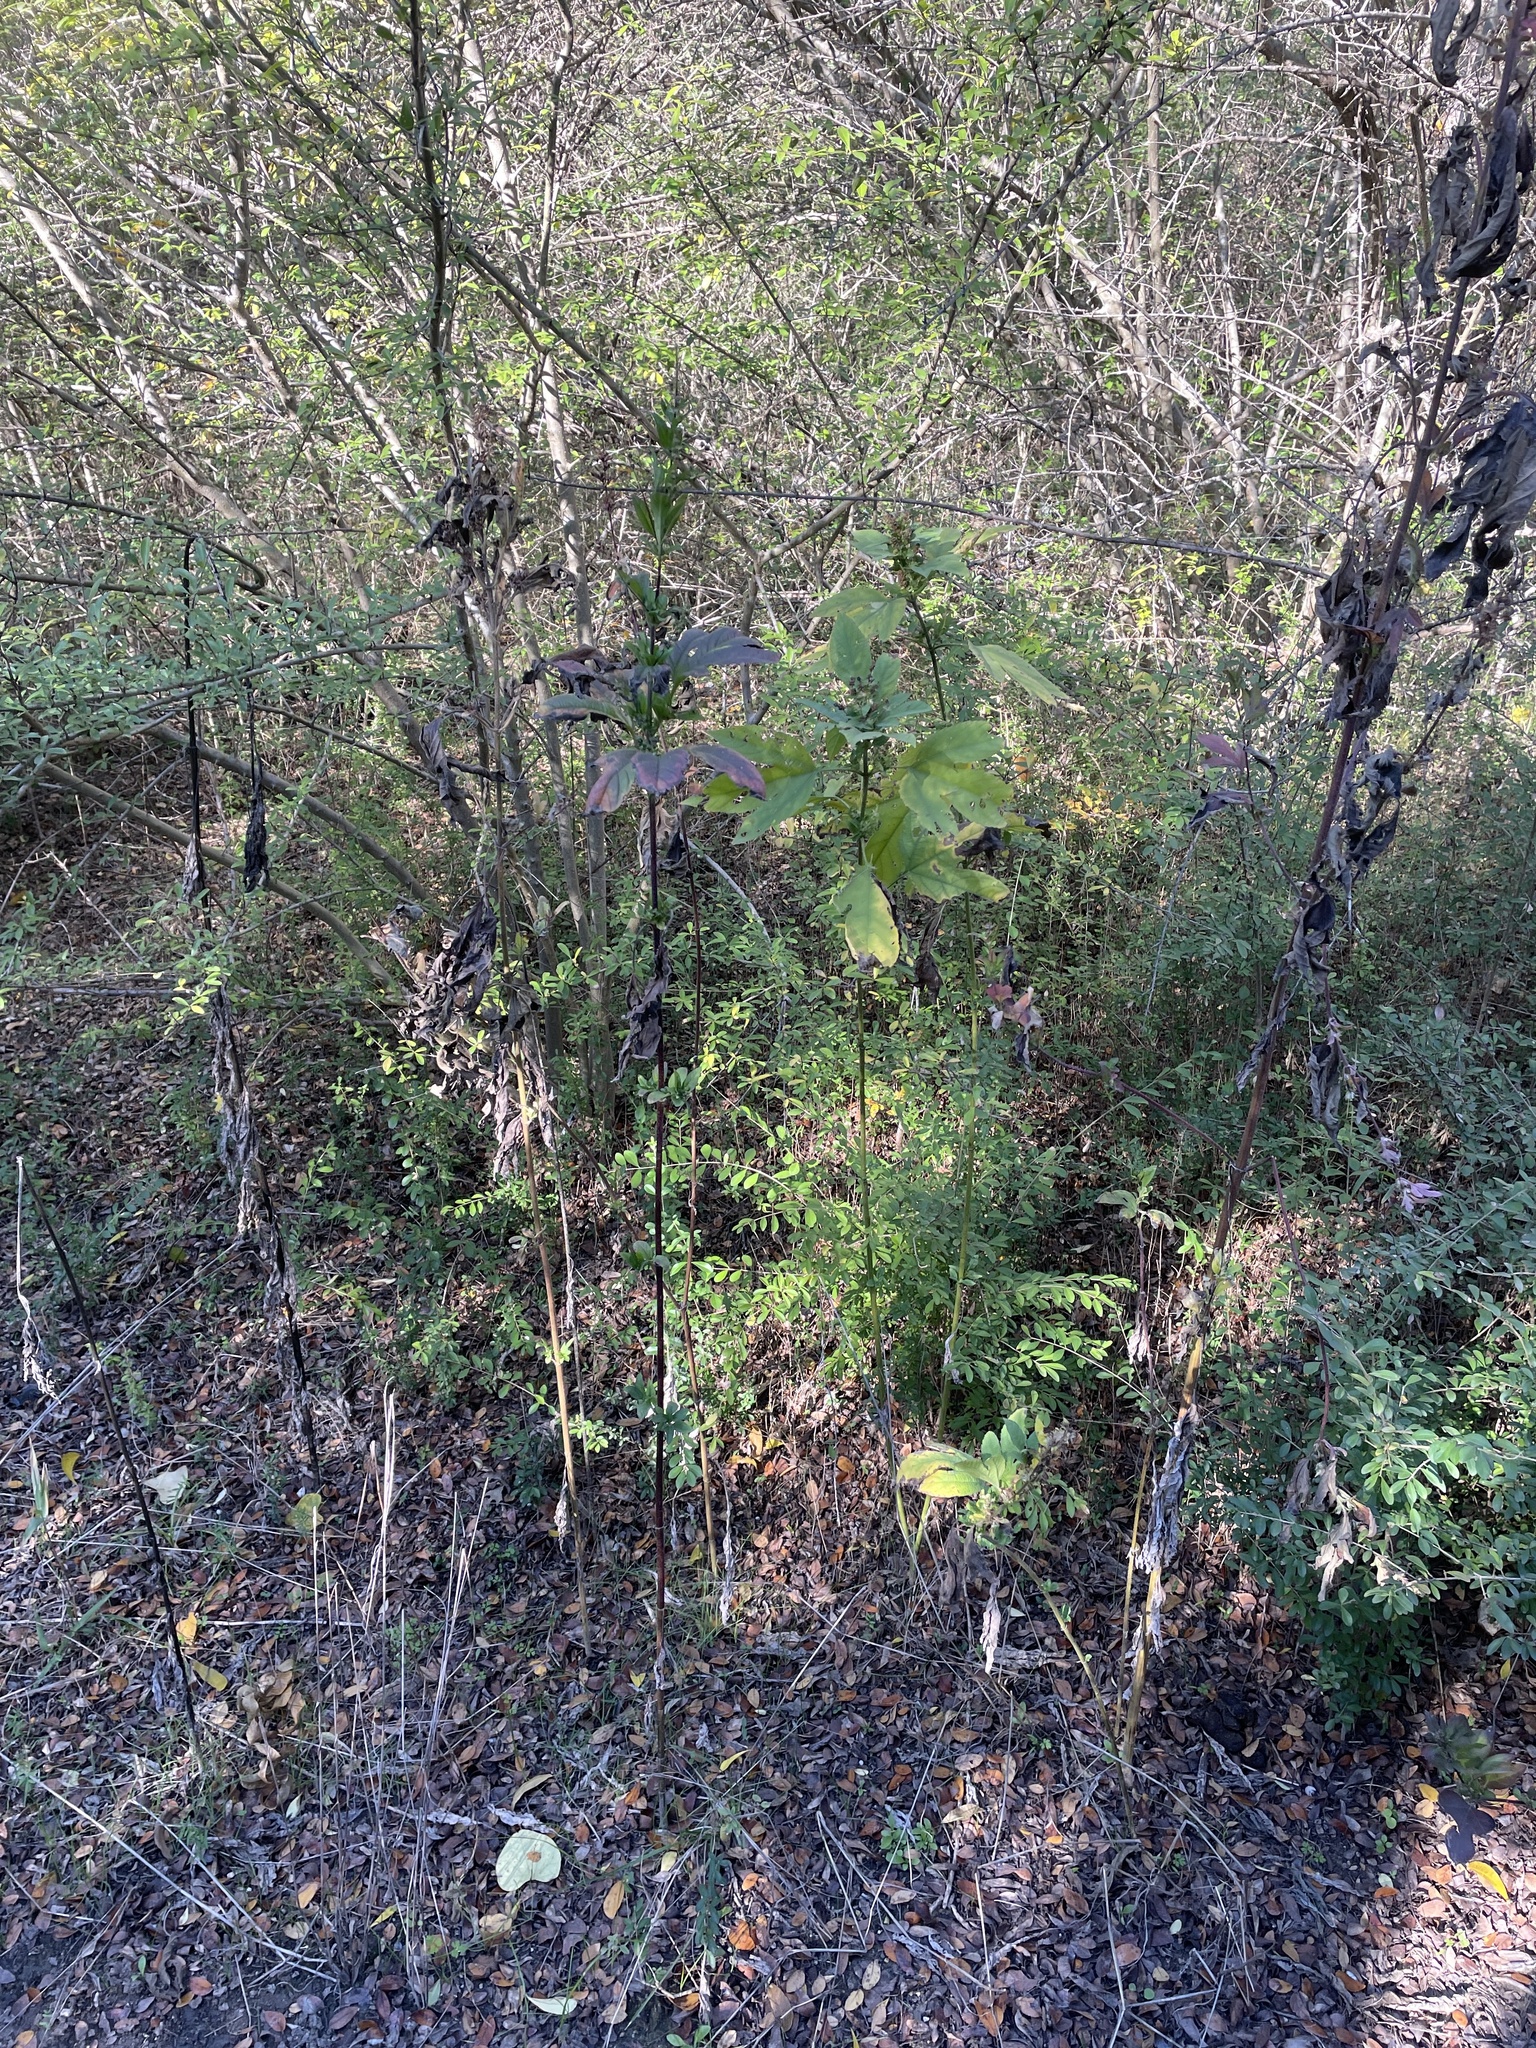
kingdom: Plantae
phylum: Tracheophyta
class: Magnoliopsida
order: Asterales
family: Asteraceae
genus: Ambrosia
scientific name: Ambrosia trifida
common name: Giant ragweed
